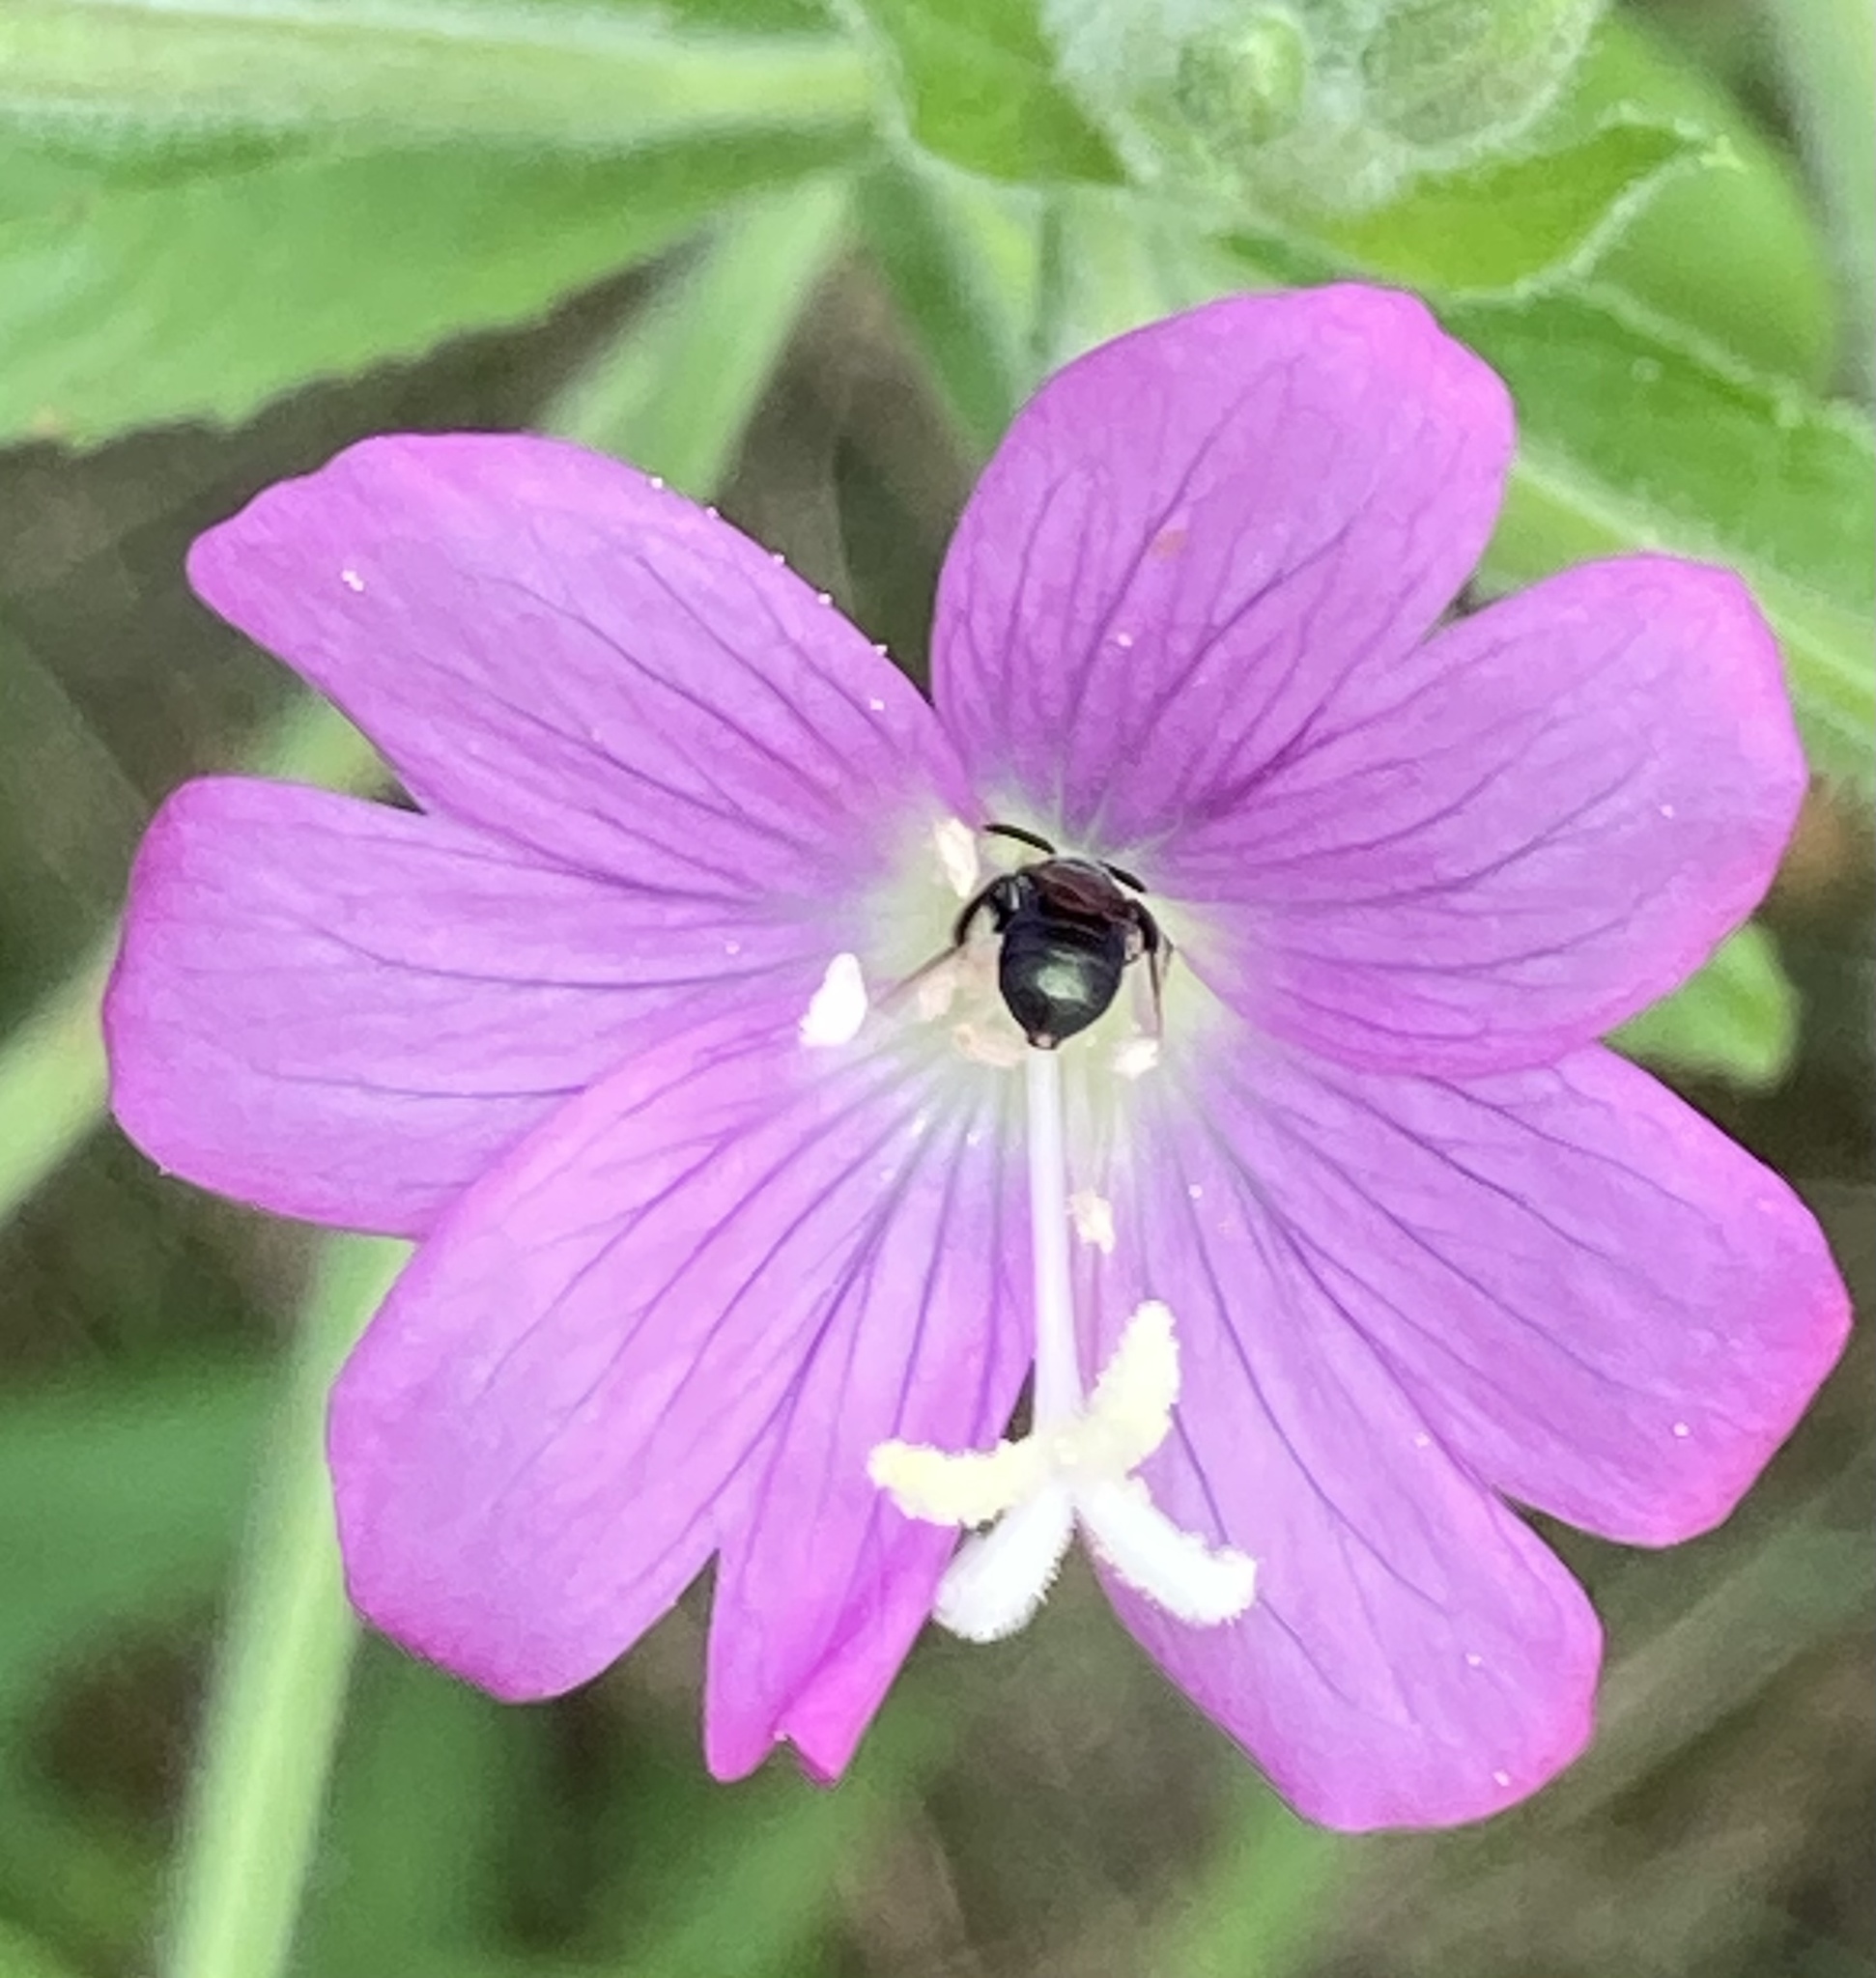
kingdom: Plantae
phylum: Tracheophyta
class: Magnoliopsida
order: Myrtales
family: Onagraceae
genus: Epilobium
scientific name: Epilobium hirsutum
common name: Great willowherb
